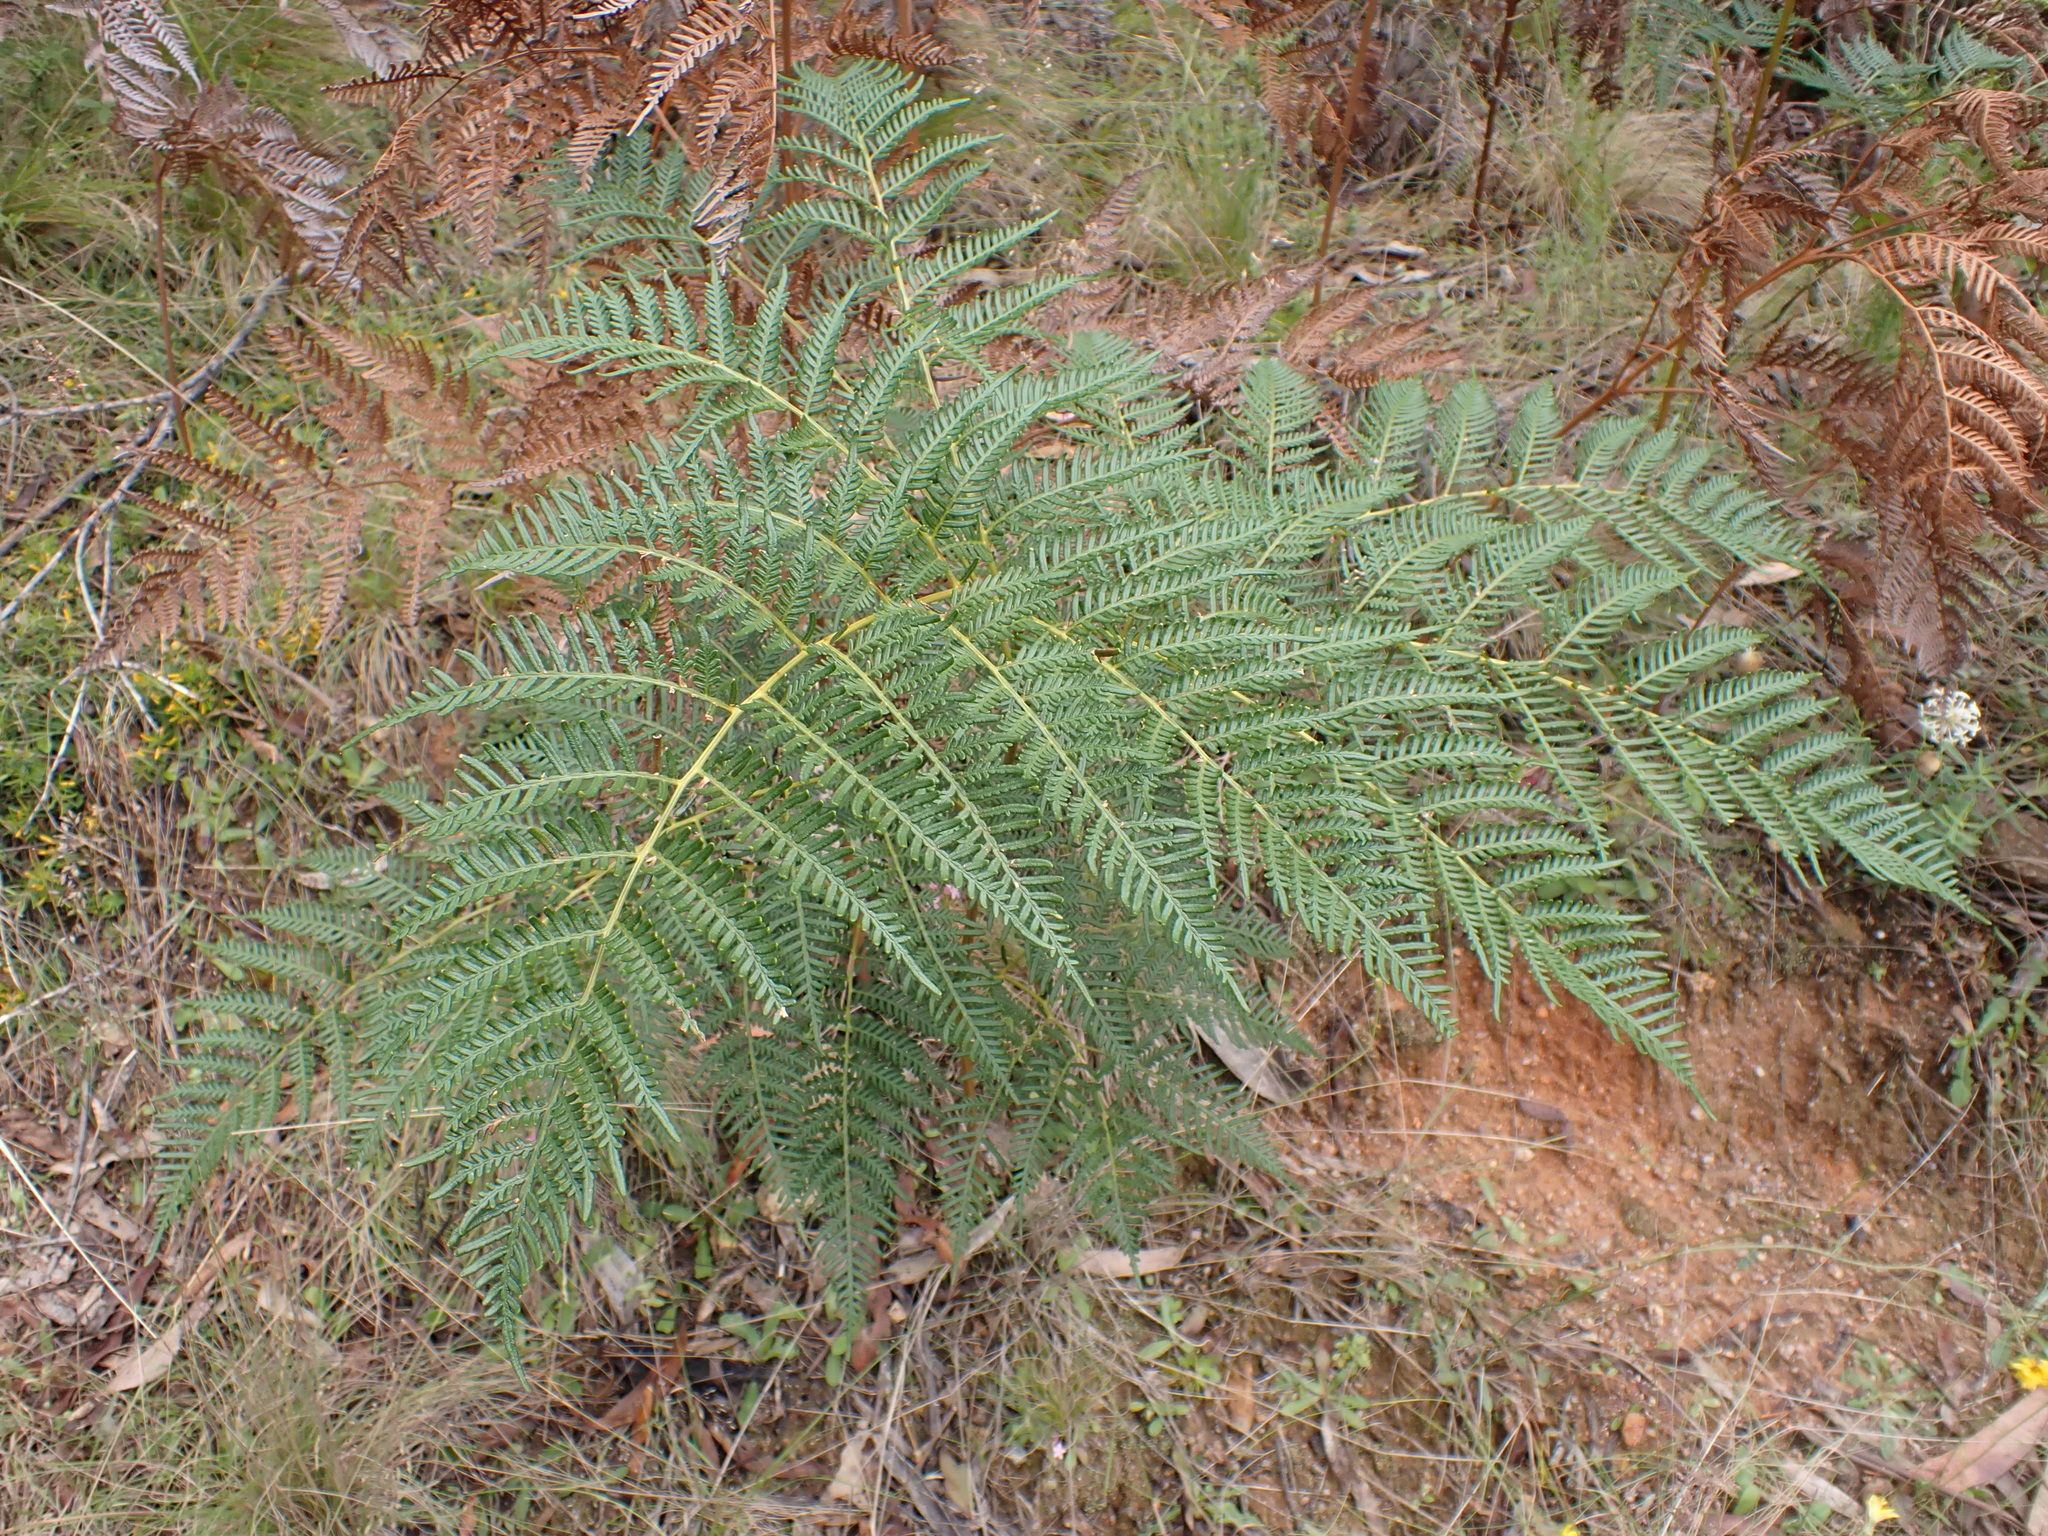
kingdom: Plantae
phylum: Tracheophyta
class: Polypodiopsida
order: Polypodiales
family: Dennstaedtiaceae
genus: Pteridium
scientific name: Pteridium esculentum
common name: Bracken fern
